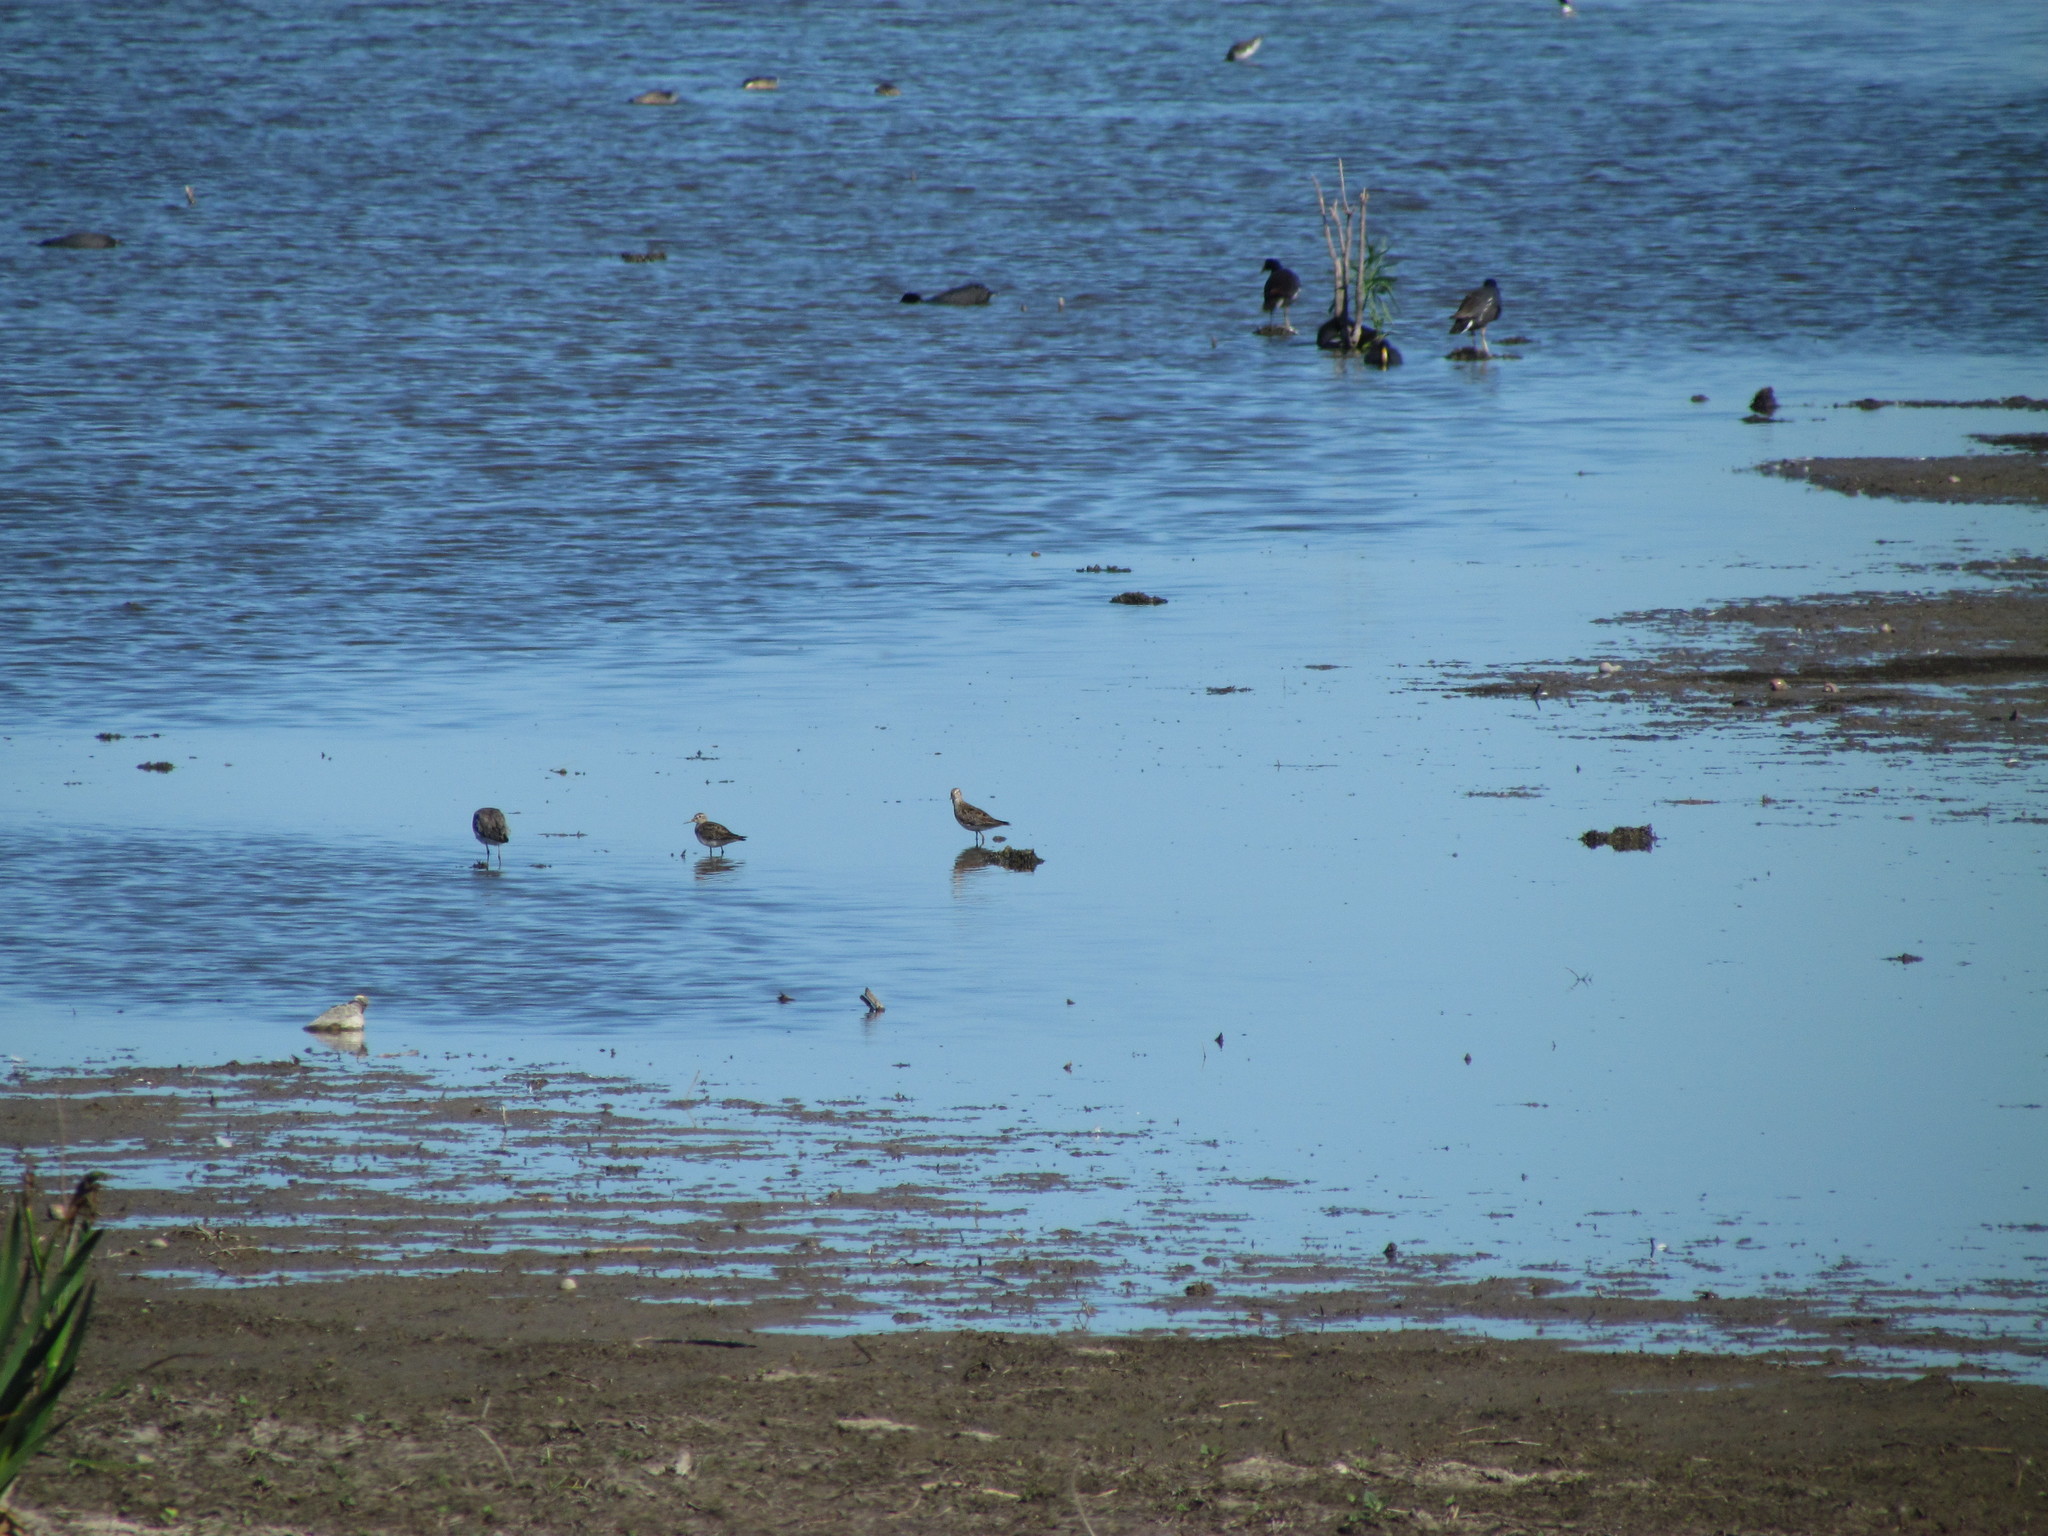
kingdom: Animalia
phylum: Chordata
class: Aves
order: Charadriiformes
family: Scolopacidae
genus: Calidris
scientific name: Calidris melanotos
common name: Pectoral sandpiper
